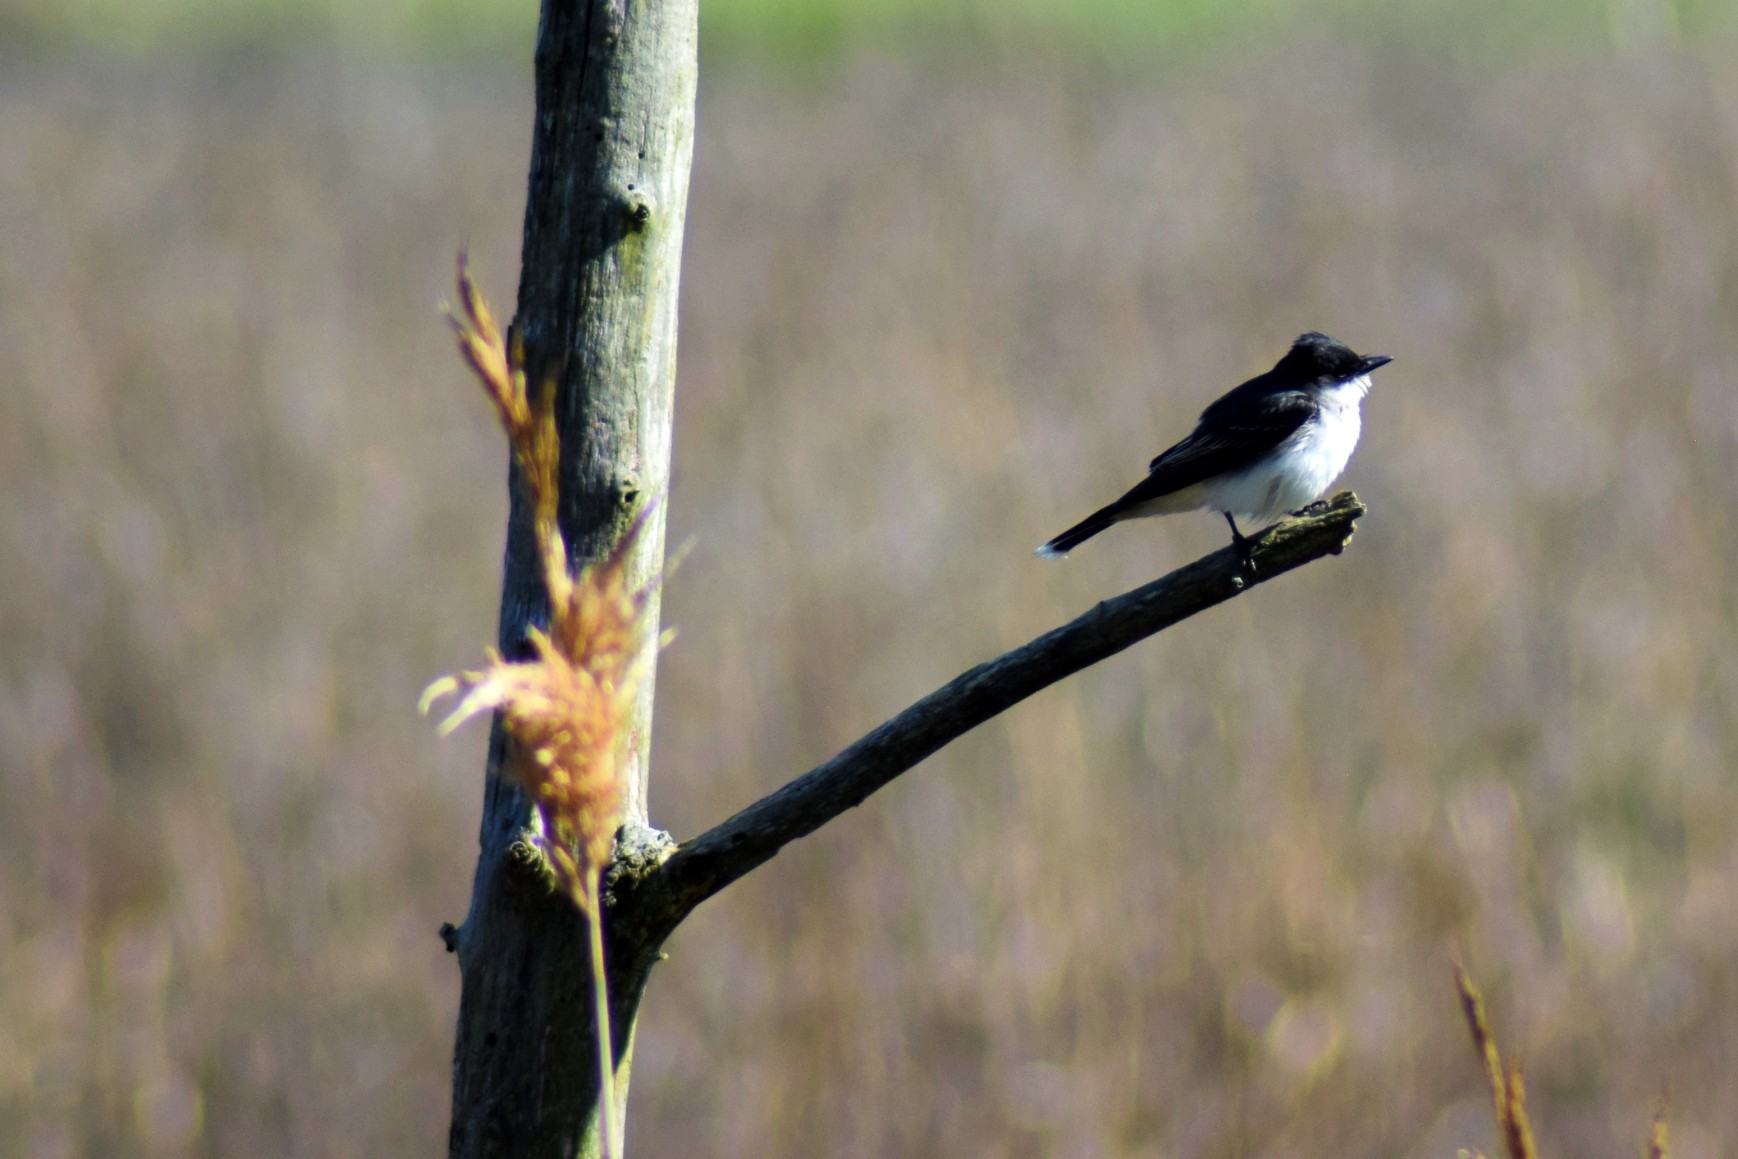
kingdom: Animalia
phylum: Chordata
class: Aves
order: Passeriformes
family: Tyrannidae
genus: Tyrannus
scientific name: Tyrannus tyrannus
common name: Eastern kingbird
